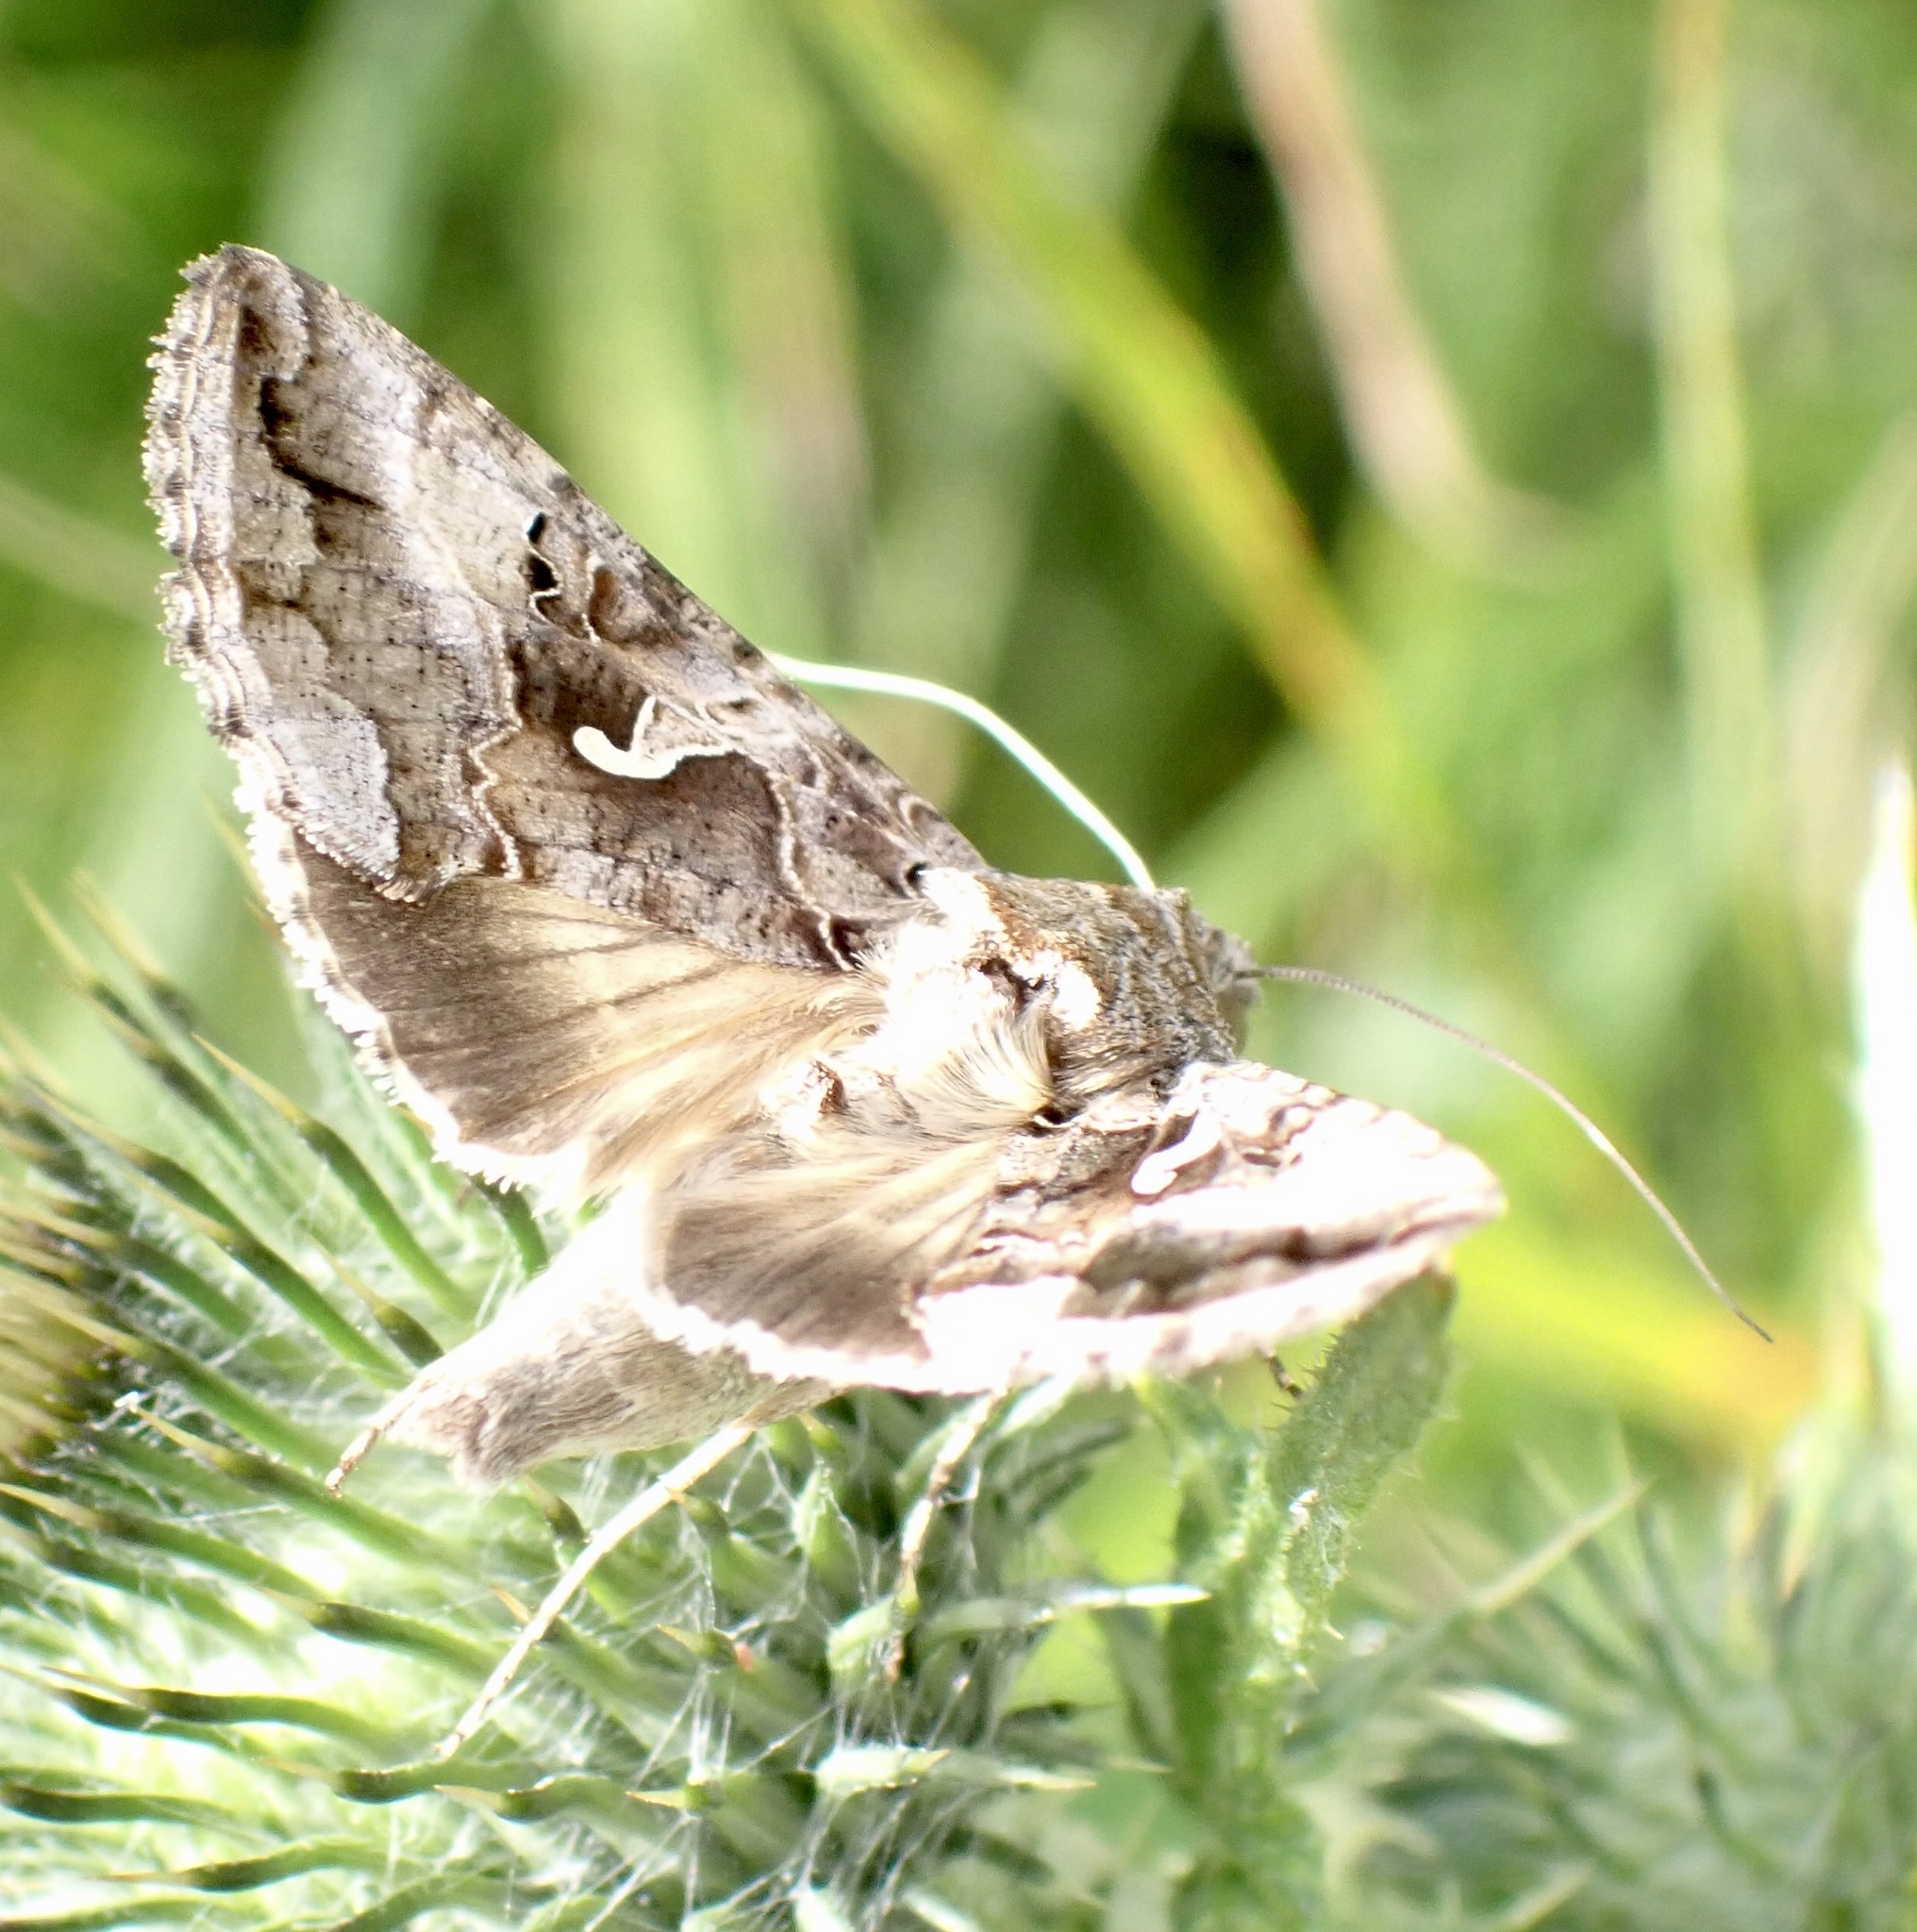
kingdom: Animalia
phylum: Arthropoda
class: Insecta
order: Lepidoptera
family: Noctuidae
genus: Autographa
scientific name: Autographa gamma
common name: Silver y
